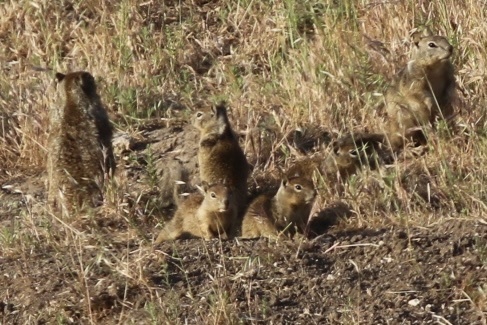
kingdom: Animalia
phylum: Chordata
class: Mammalia
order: Rodentia
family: Sciuridae
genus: Otospermophilus
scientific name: Otospermophilus beecheyi
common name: California ground squirrel
